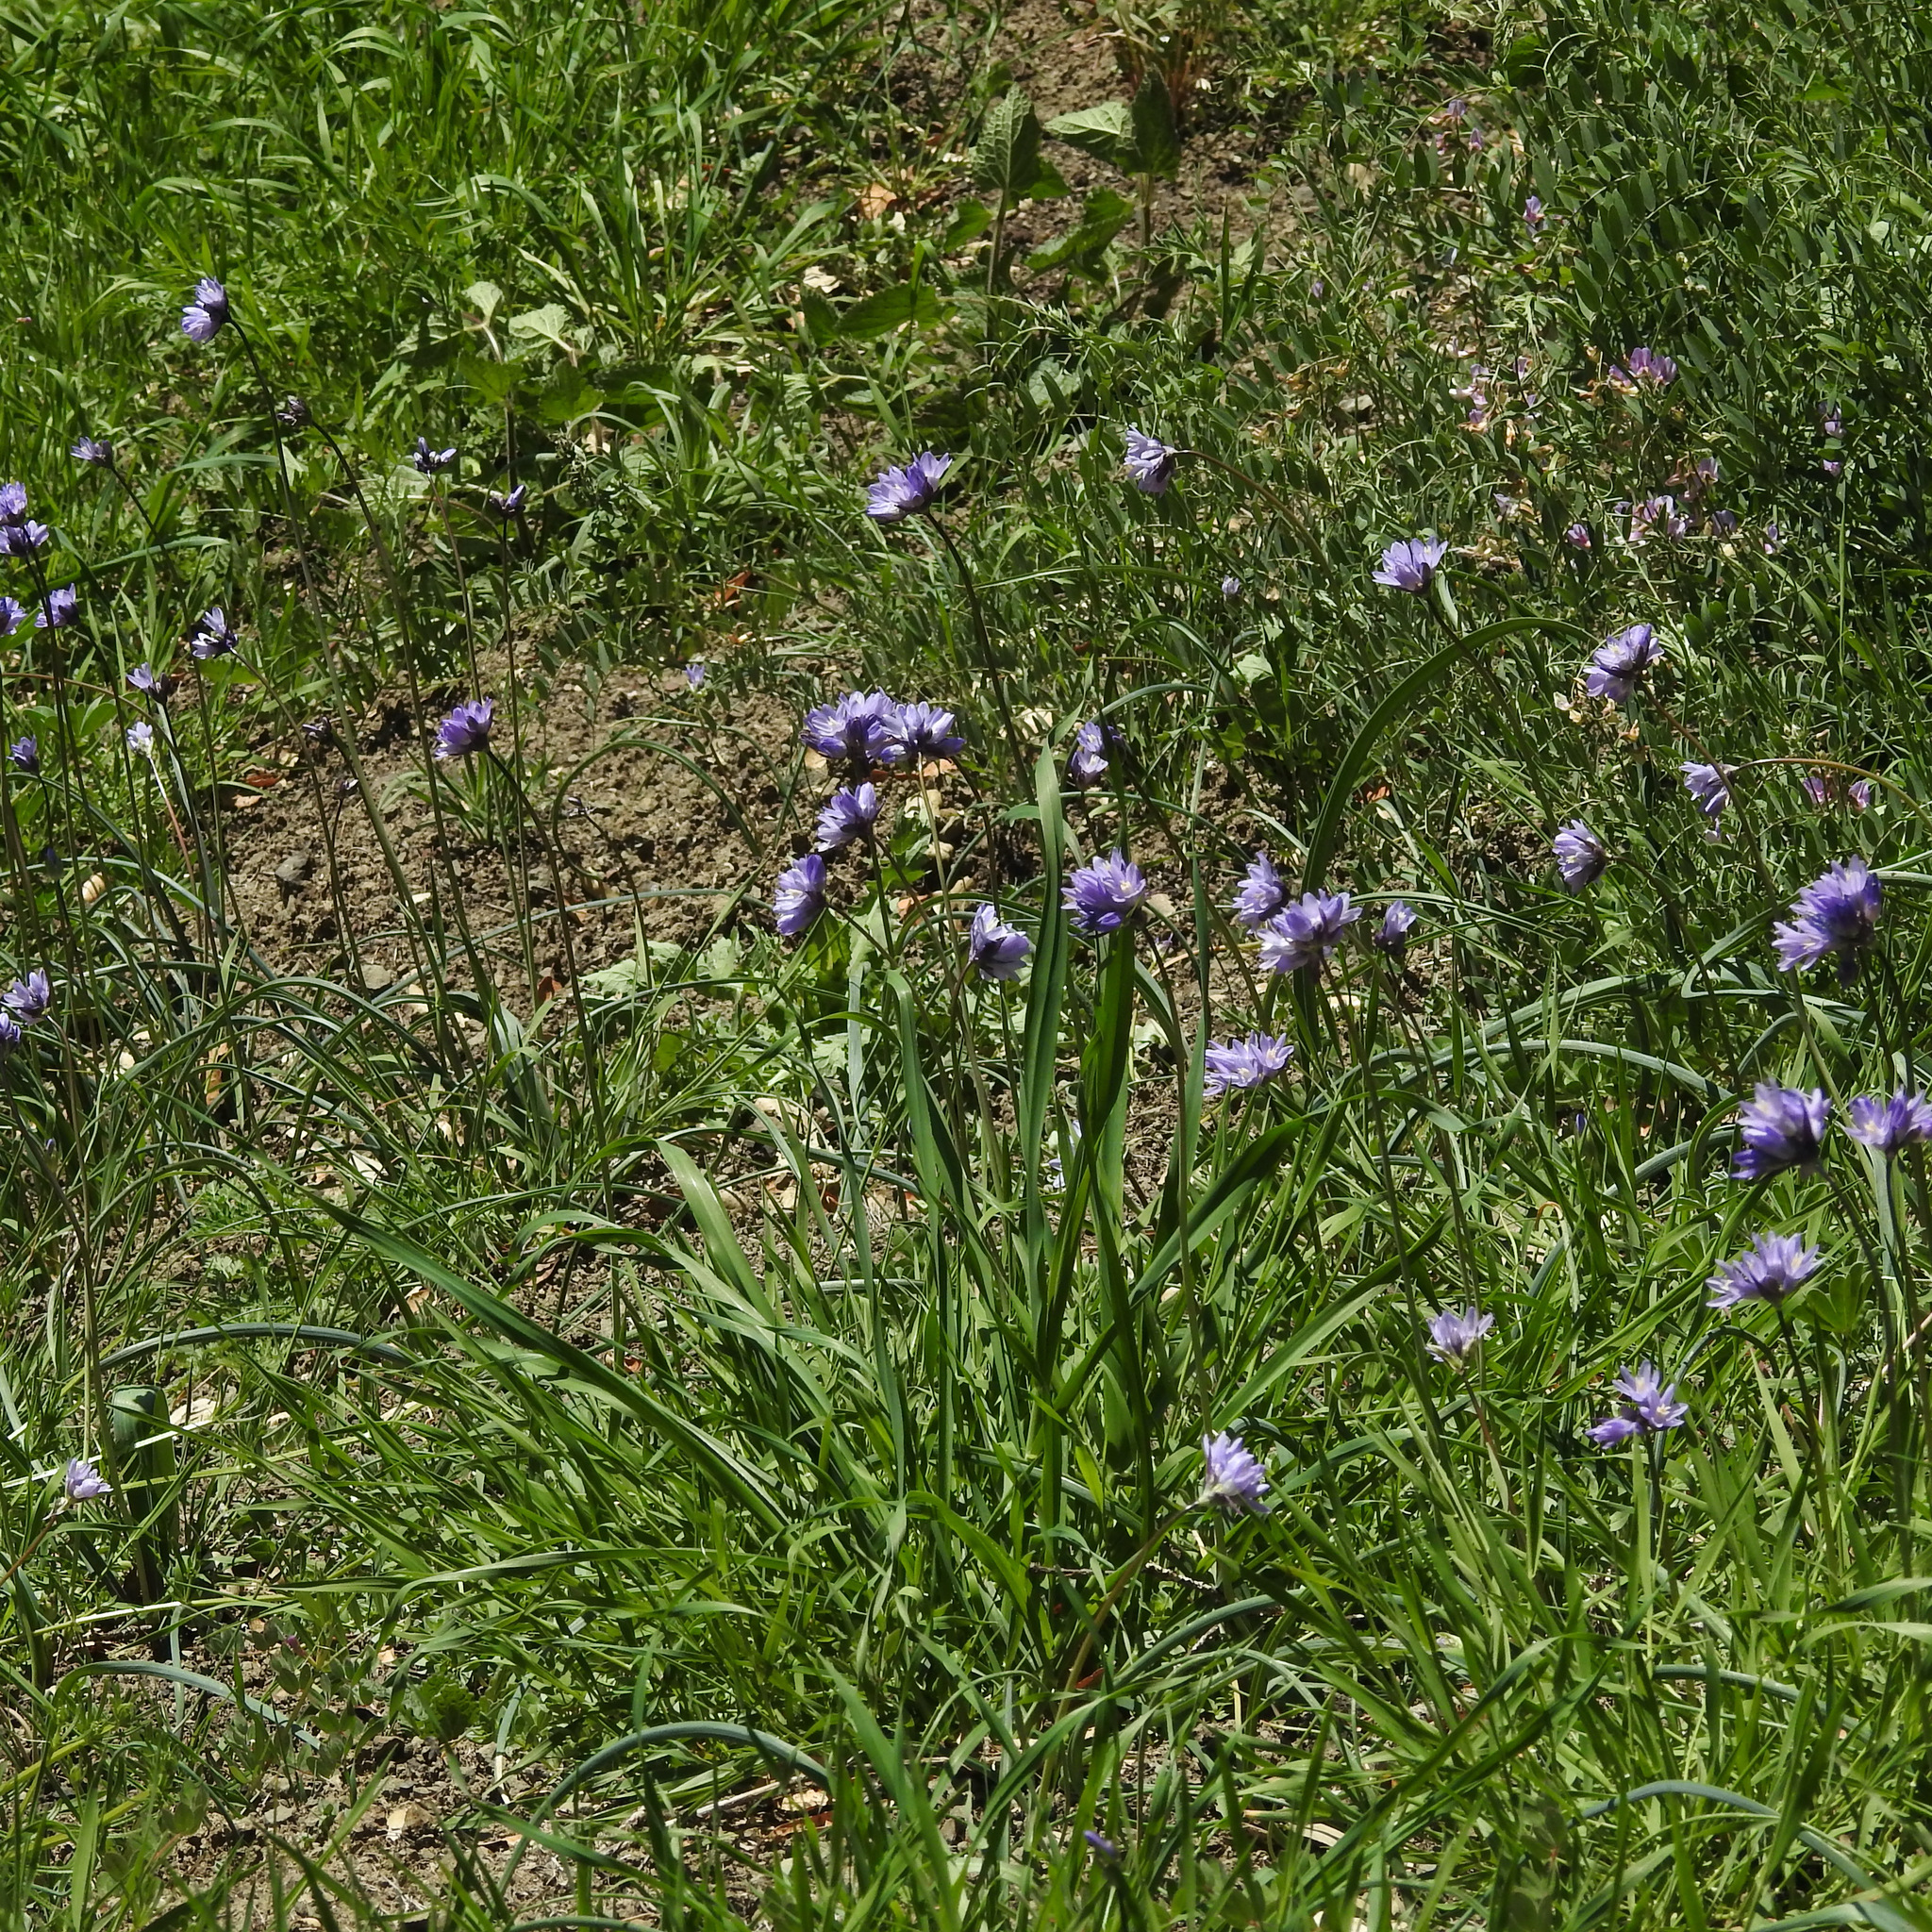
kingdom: Plantae
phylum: Tracheophyta
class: Liliopsida
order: Asparagales
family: Asparagaceae
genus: Dipterostemon
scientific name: Dipterostemon capitatus
